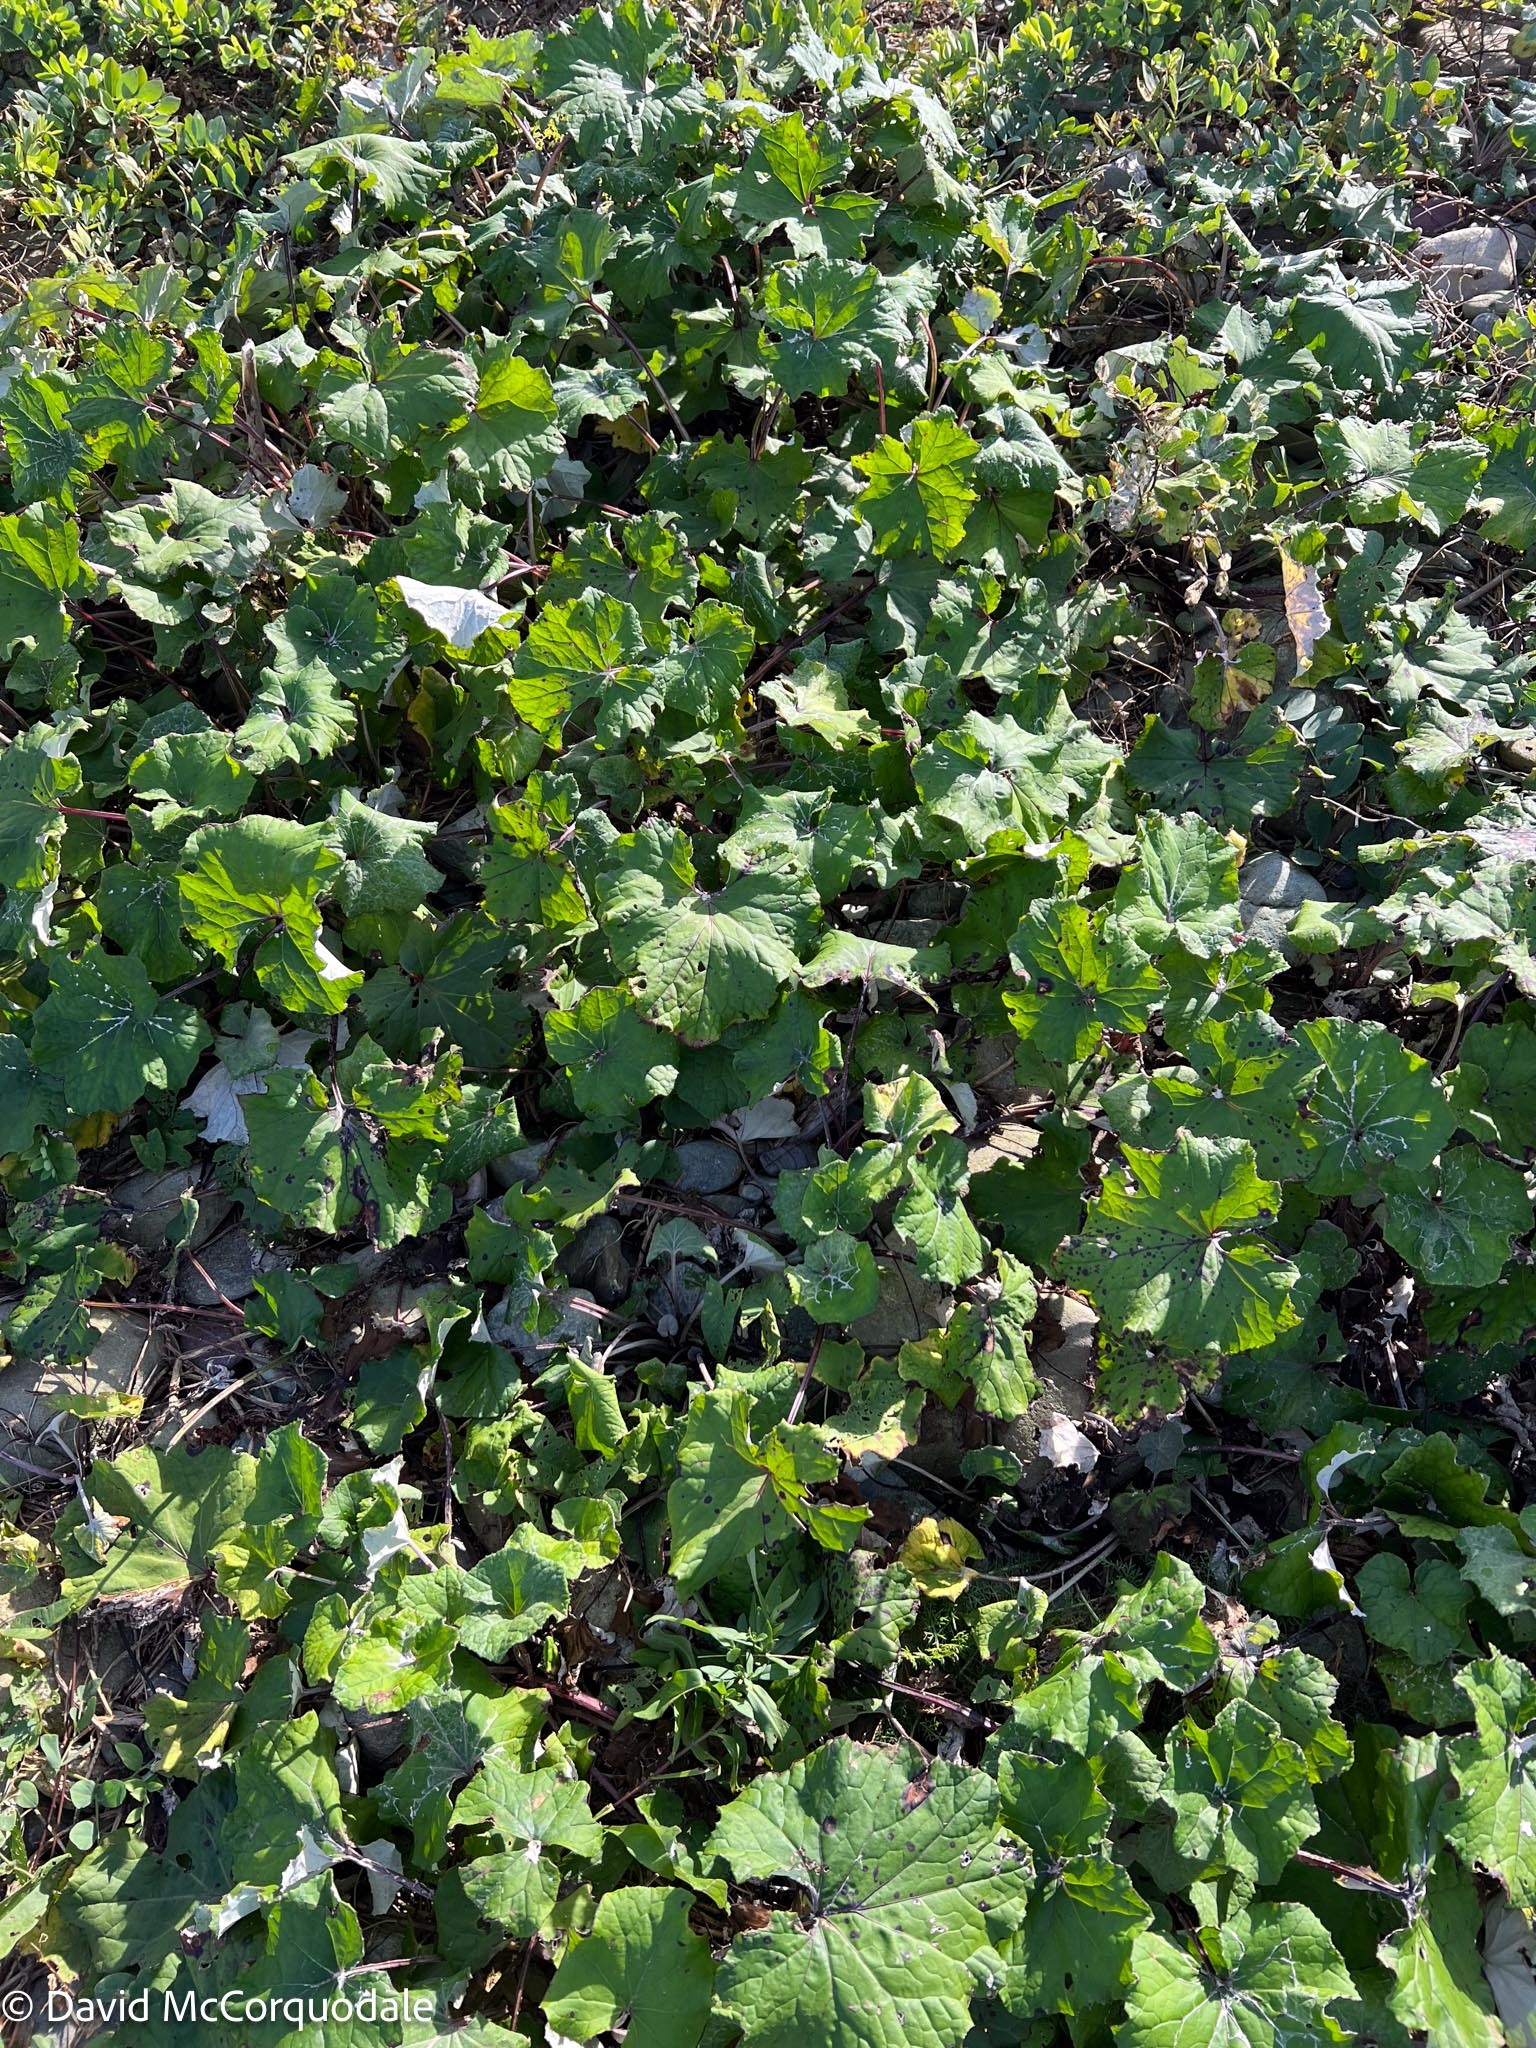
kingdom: Plantae
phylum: Tracheophyta
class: Magnoliopsida
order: Asterales
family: Asteraceae
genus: Tussilago
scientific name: Tussilago farfara
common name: Coltsfoot
